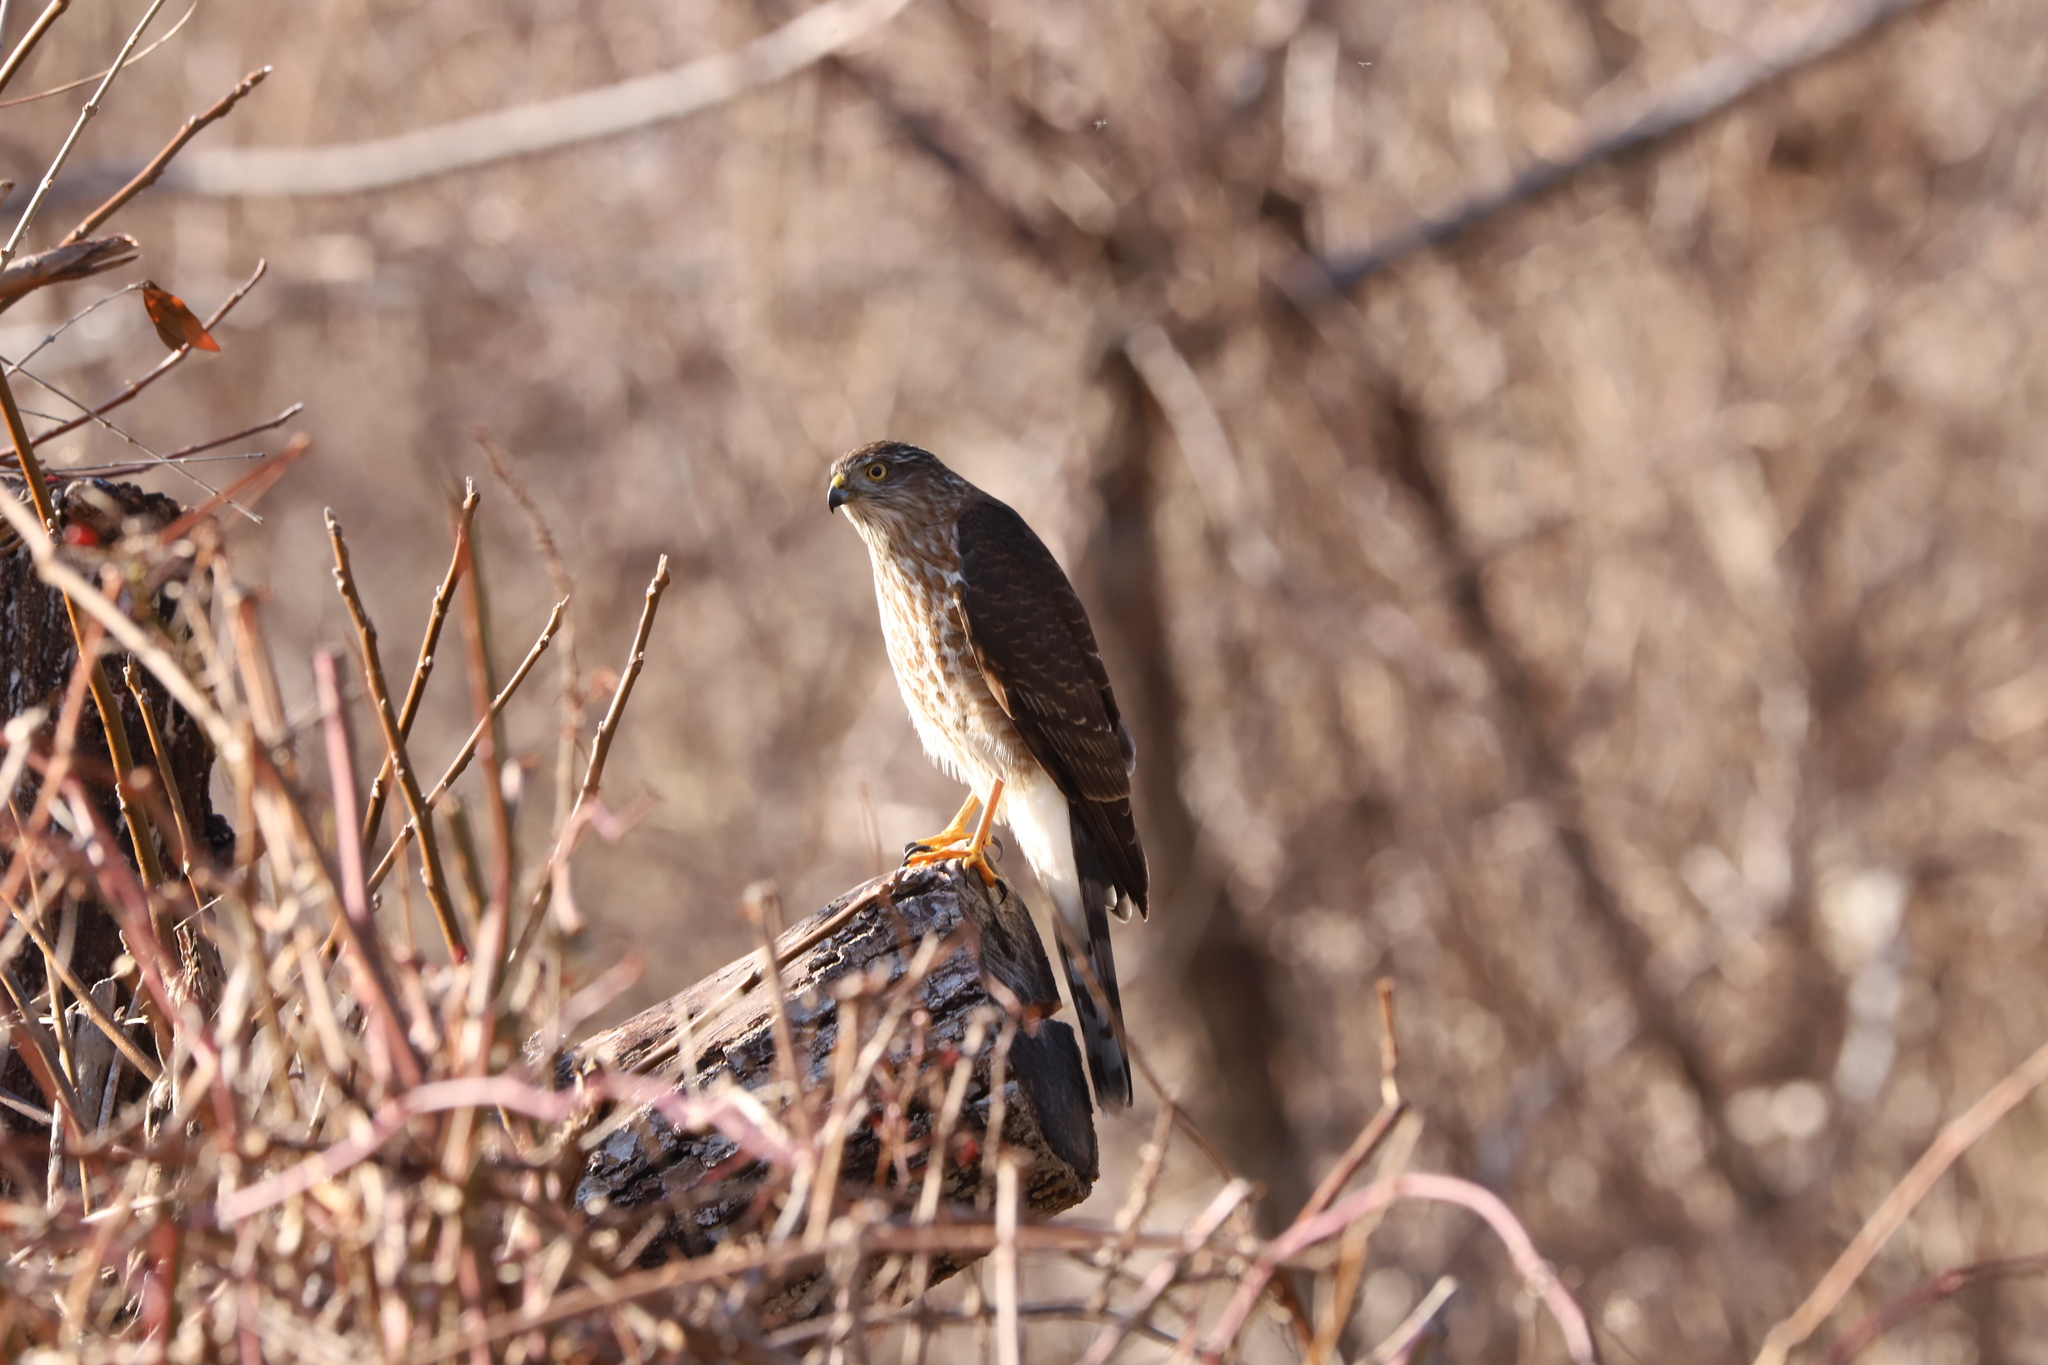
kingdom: Animalia
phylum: Chordata
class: Aves
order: Accipitriformes
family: Accipitridae
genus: Accipiter
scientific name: Accipiter cooperii
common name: Cooper's hawk
